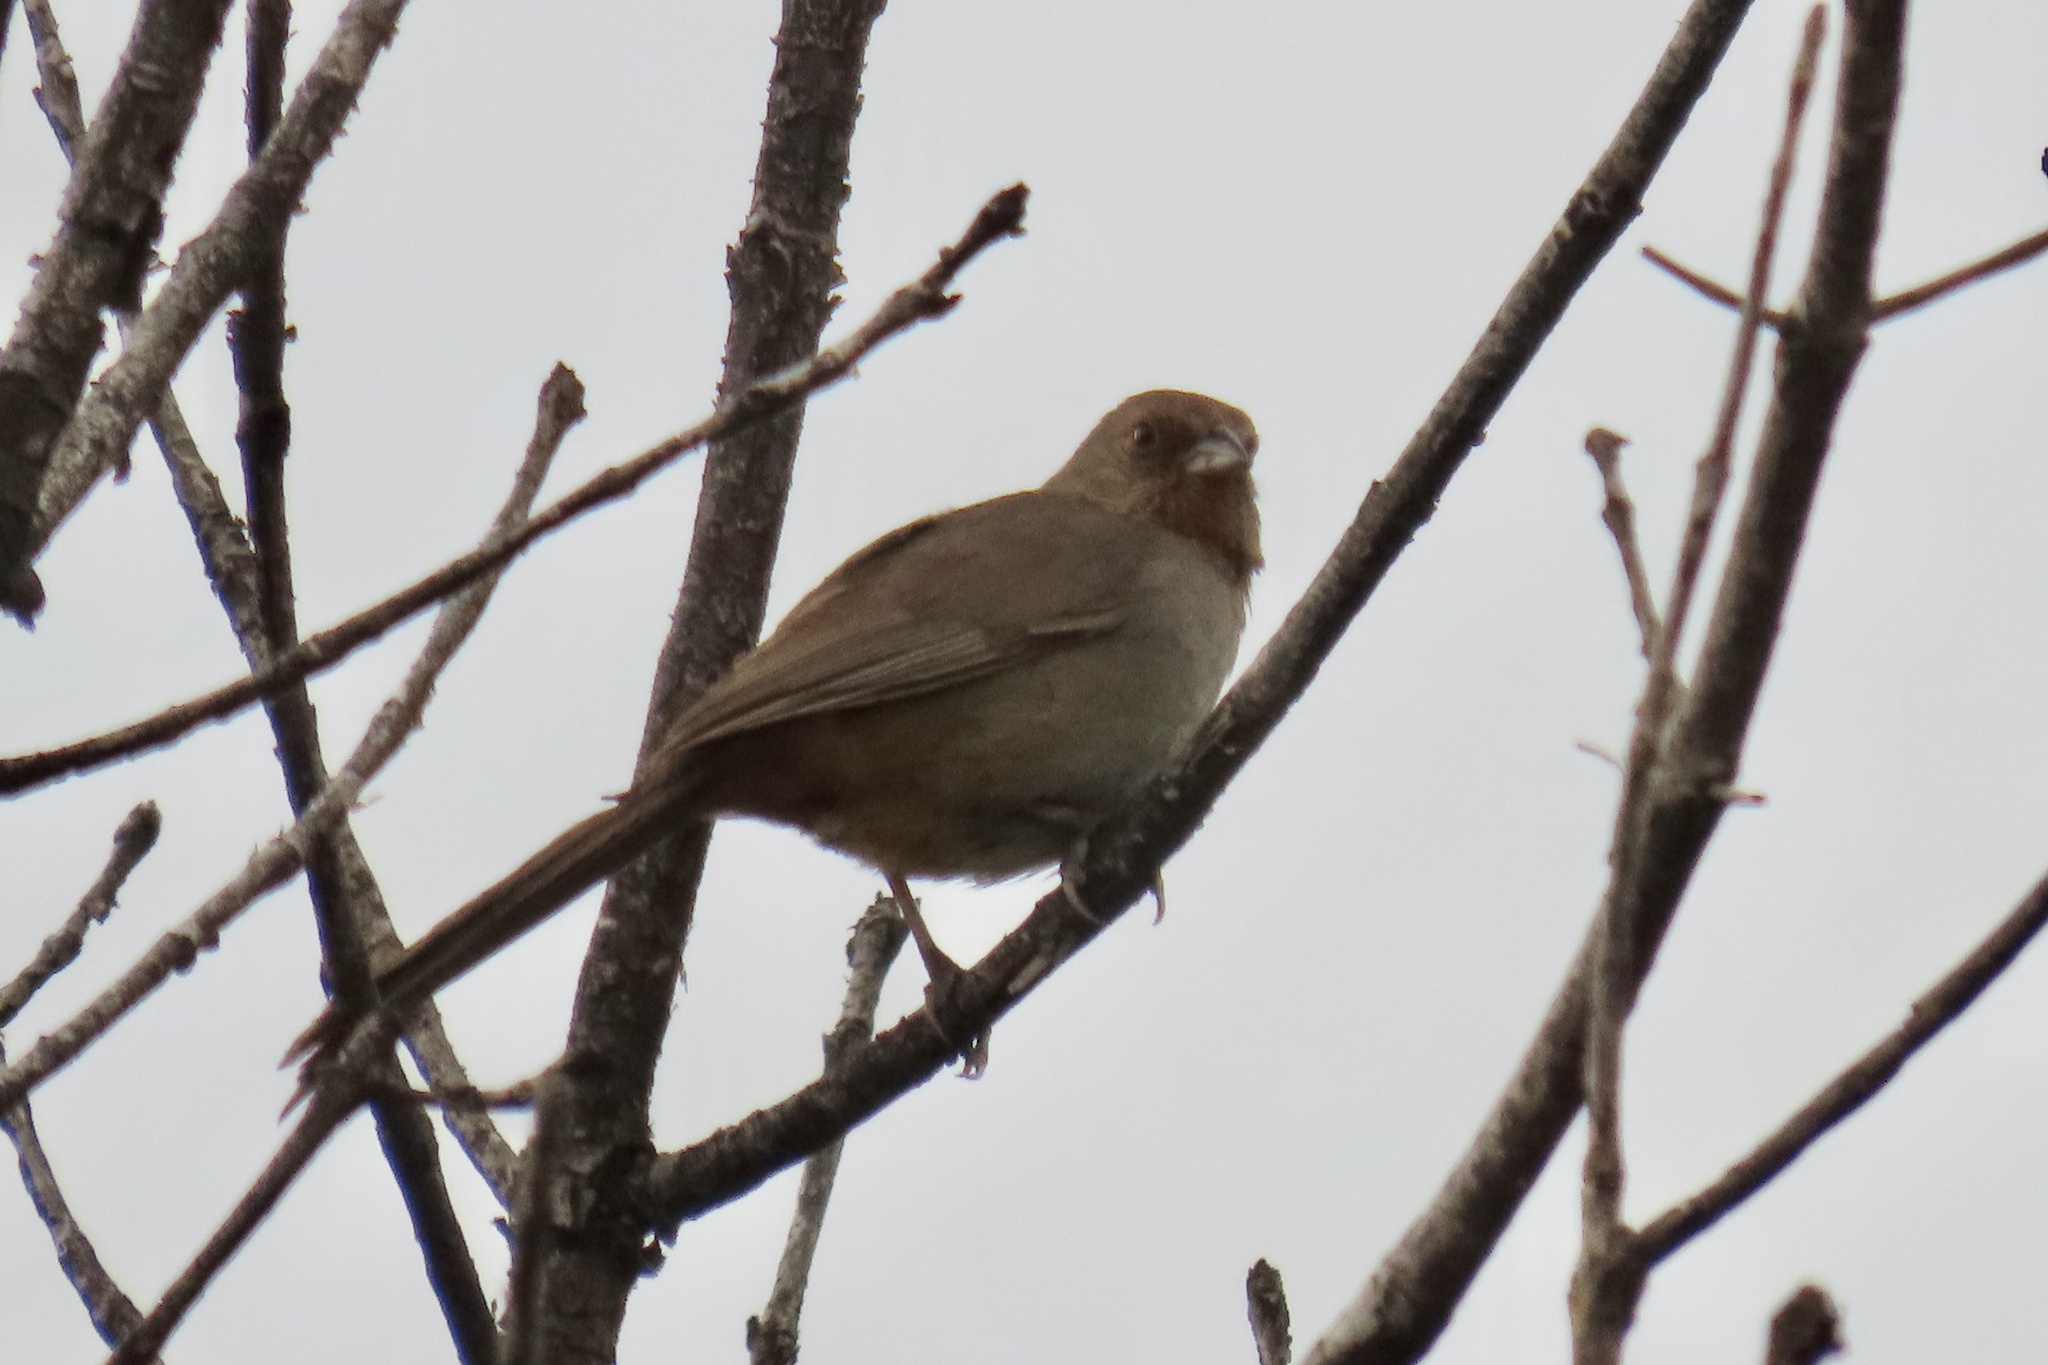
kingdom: Animalia
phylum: Chordata
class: Aves
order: Passeriformes
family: Passerellidae
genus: Melozone
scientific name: Melozone crissalis
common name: California towhee
